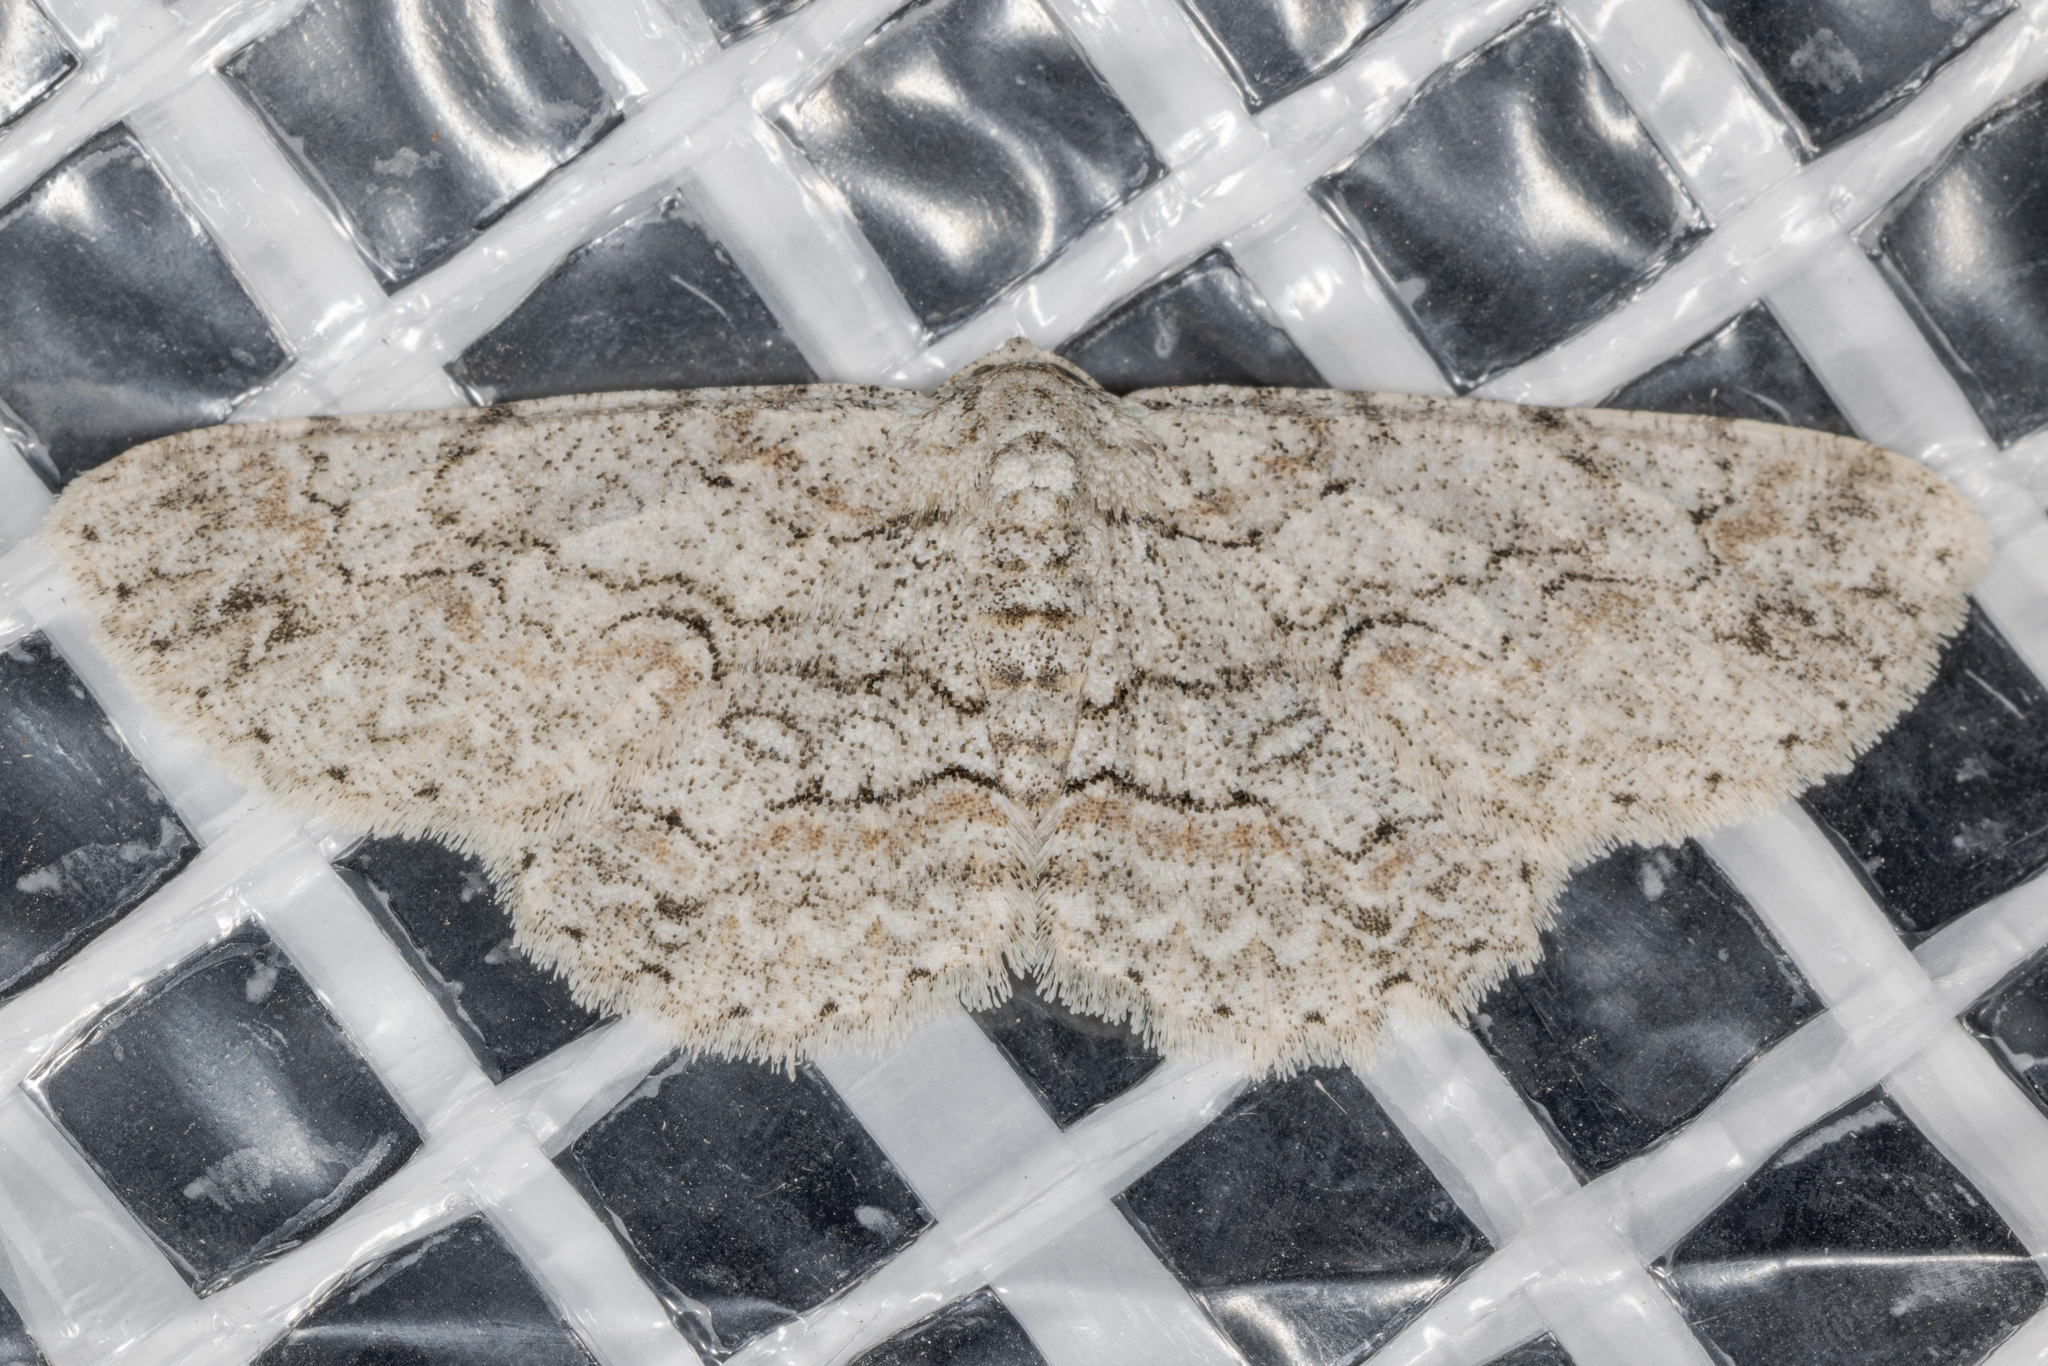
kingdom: Animalia
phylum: Arthropoda
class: Insecta
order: Lepidoptera
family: Geometridae
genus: Iridopsis
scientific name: Iridopsis defectaria
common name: Brown-shaded gray
